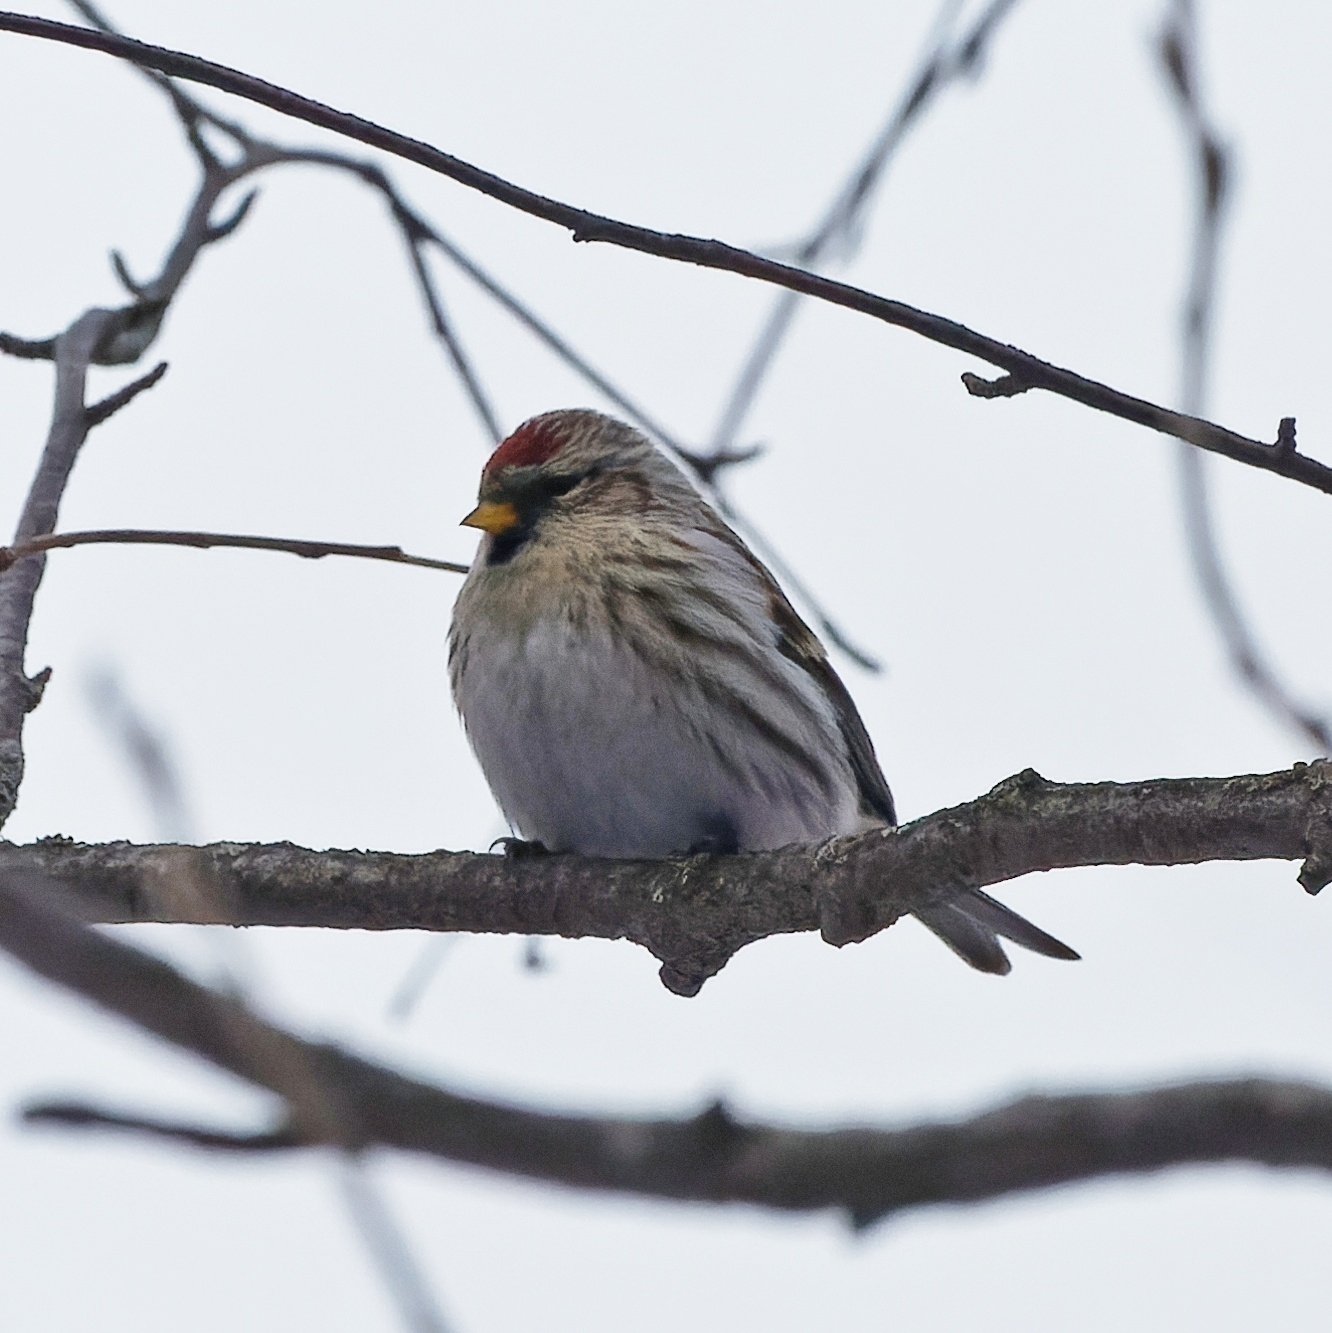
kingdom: Animalia
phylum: Chordata
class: Aves
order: Passeriformes
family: Fringillidae
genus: Acanthis
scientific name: Acanthis flammea
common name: Common redpoll
